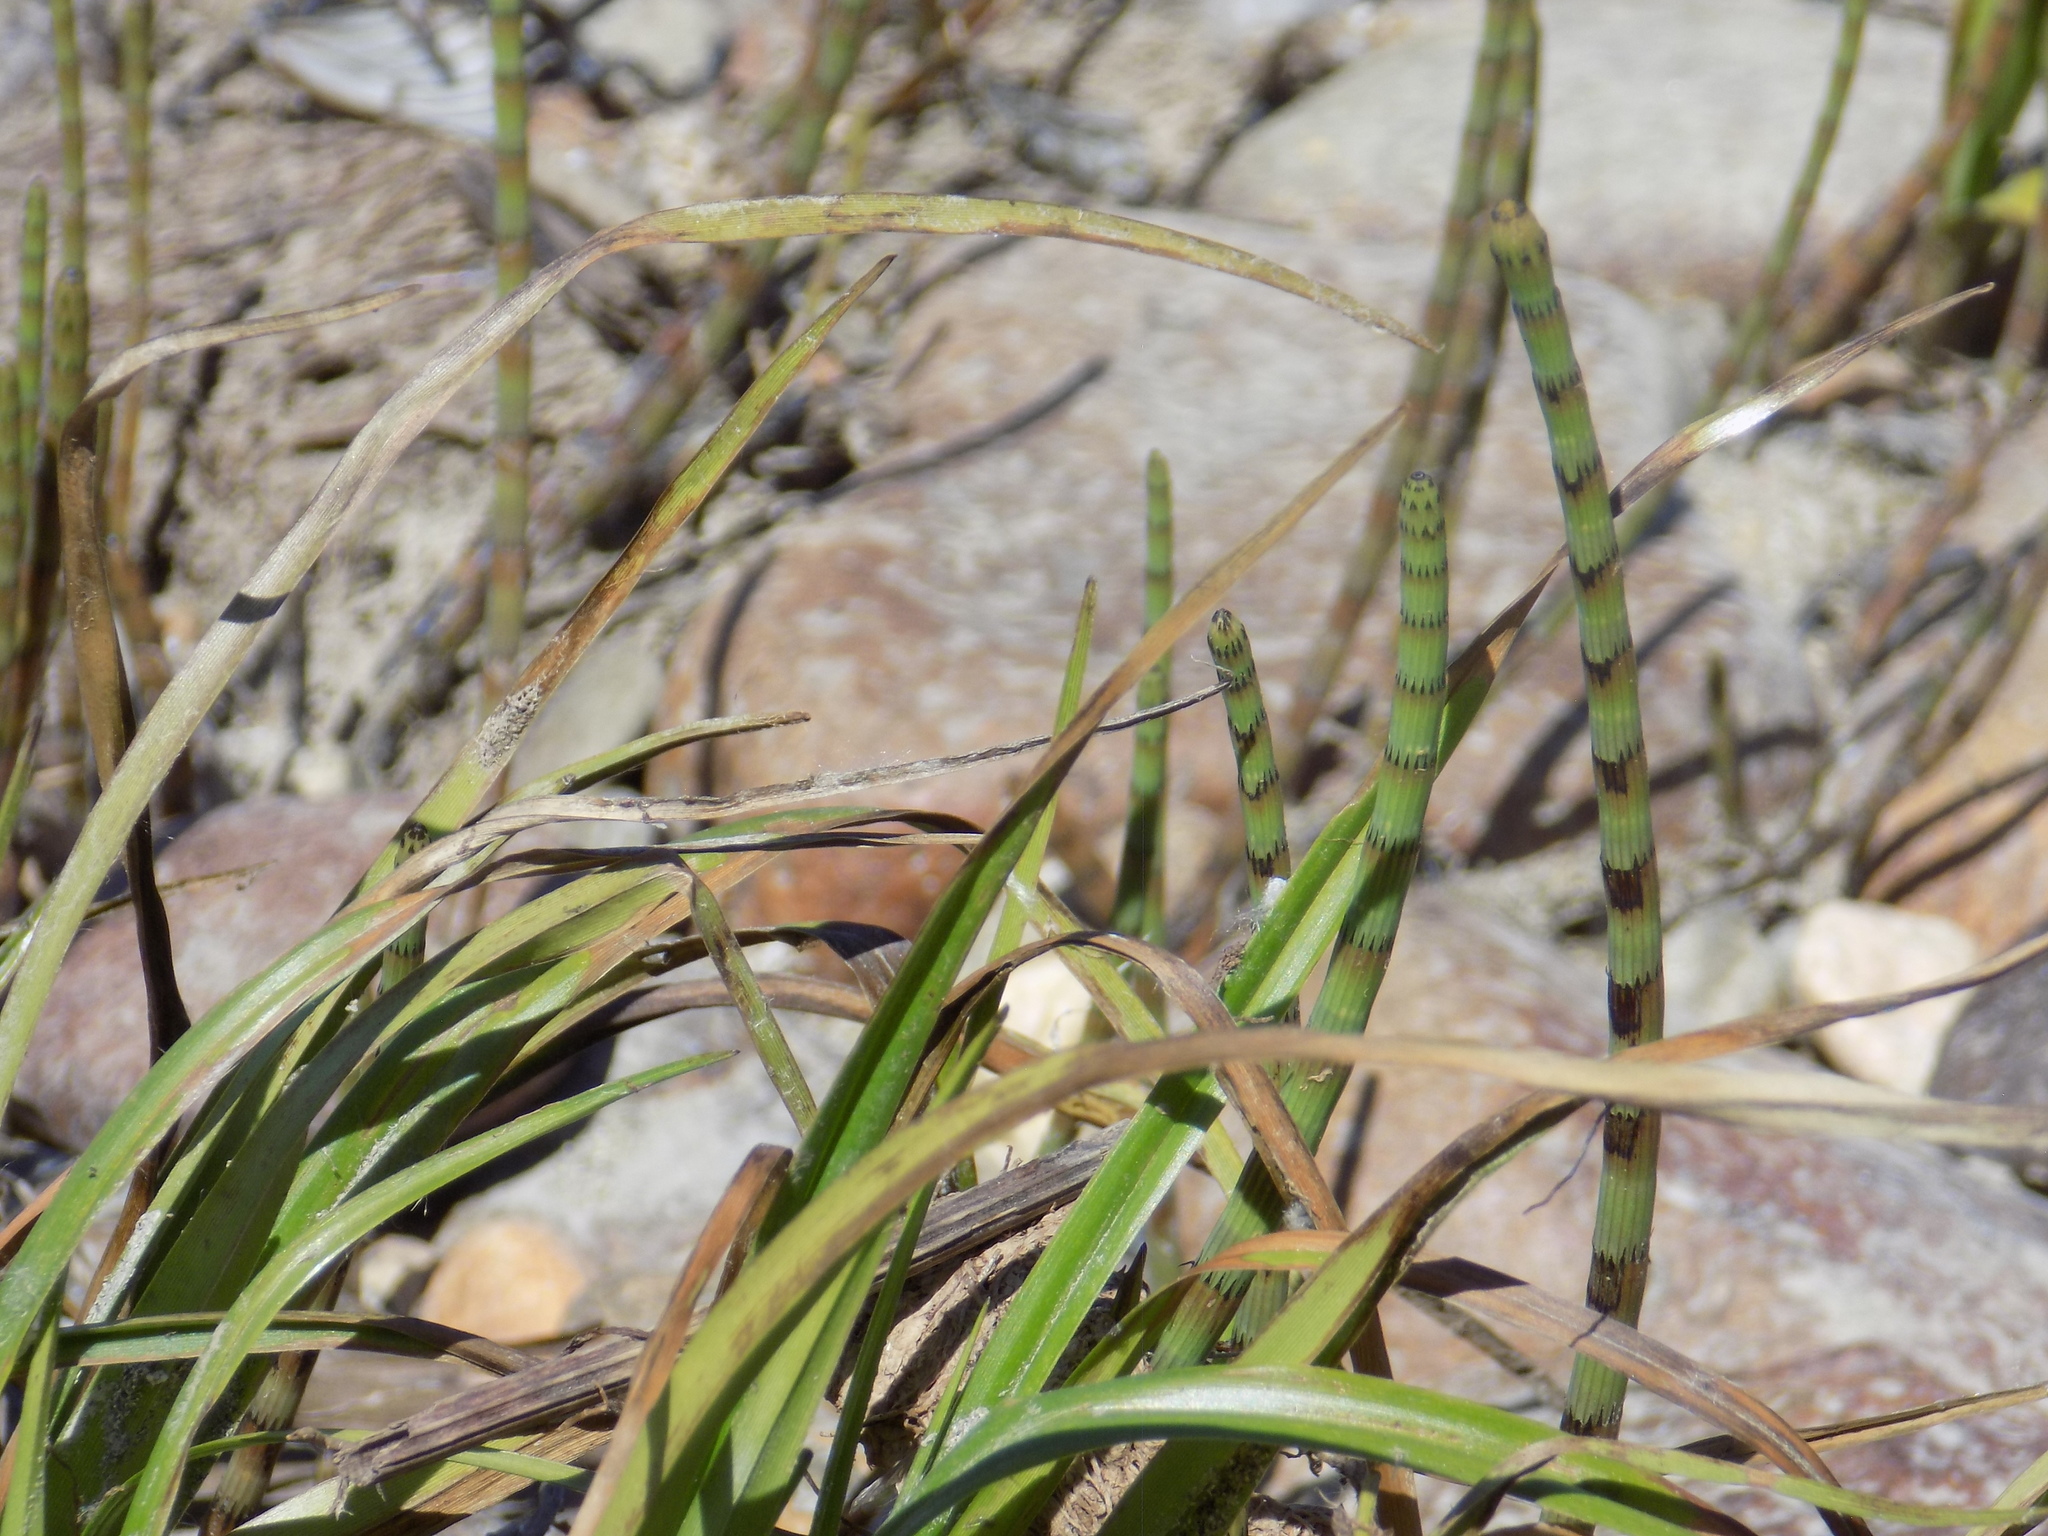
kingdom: Plantae
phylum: Tracheophyta
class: Polypodiopsida
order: Equisetales
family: Equisetaceae
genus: Equisetum
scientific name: Equisetum fluviatile
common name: Water horsetail
